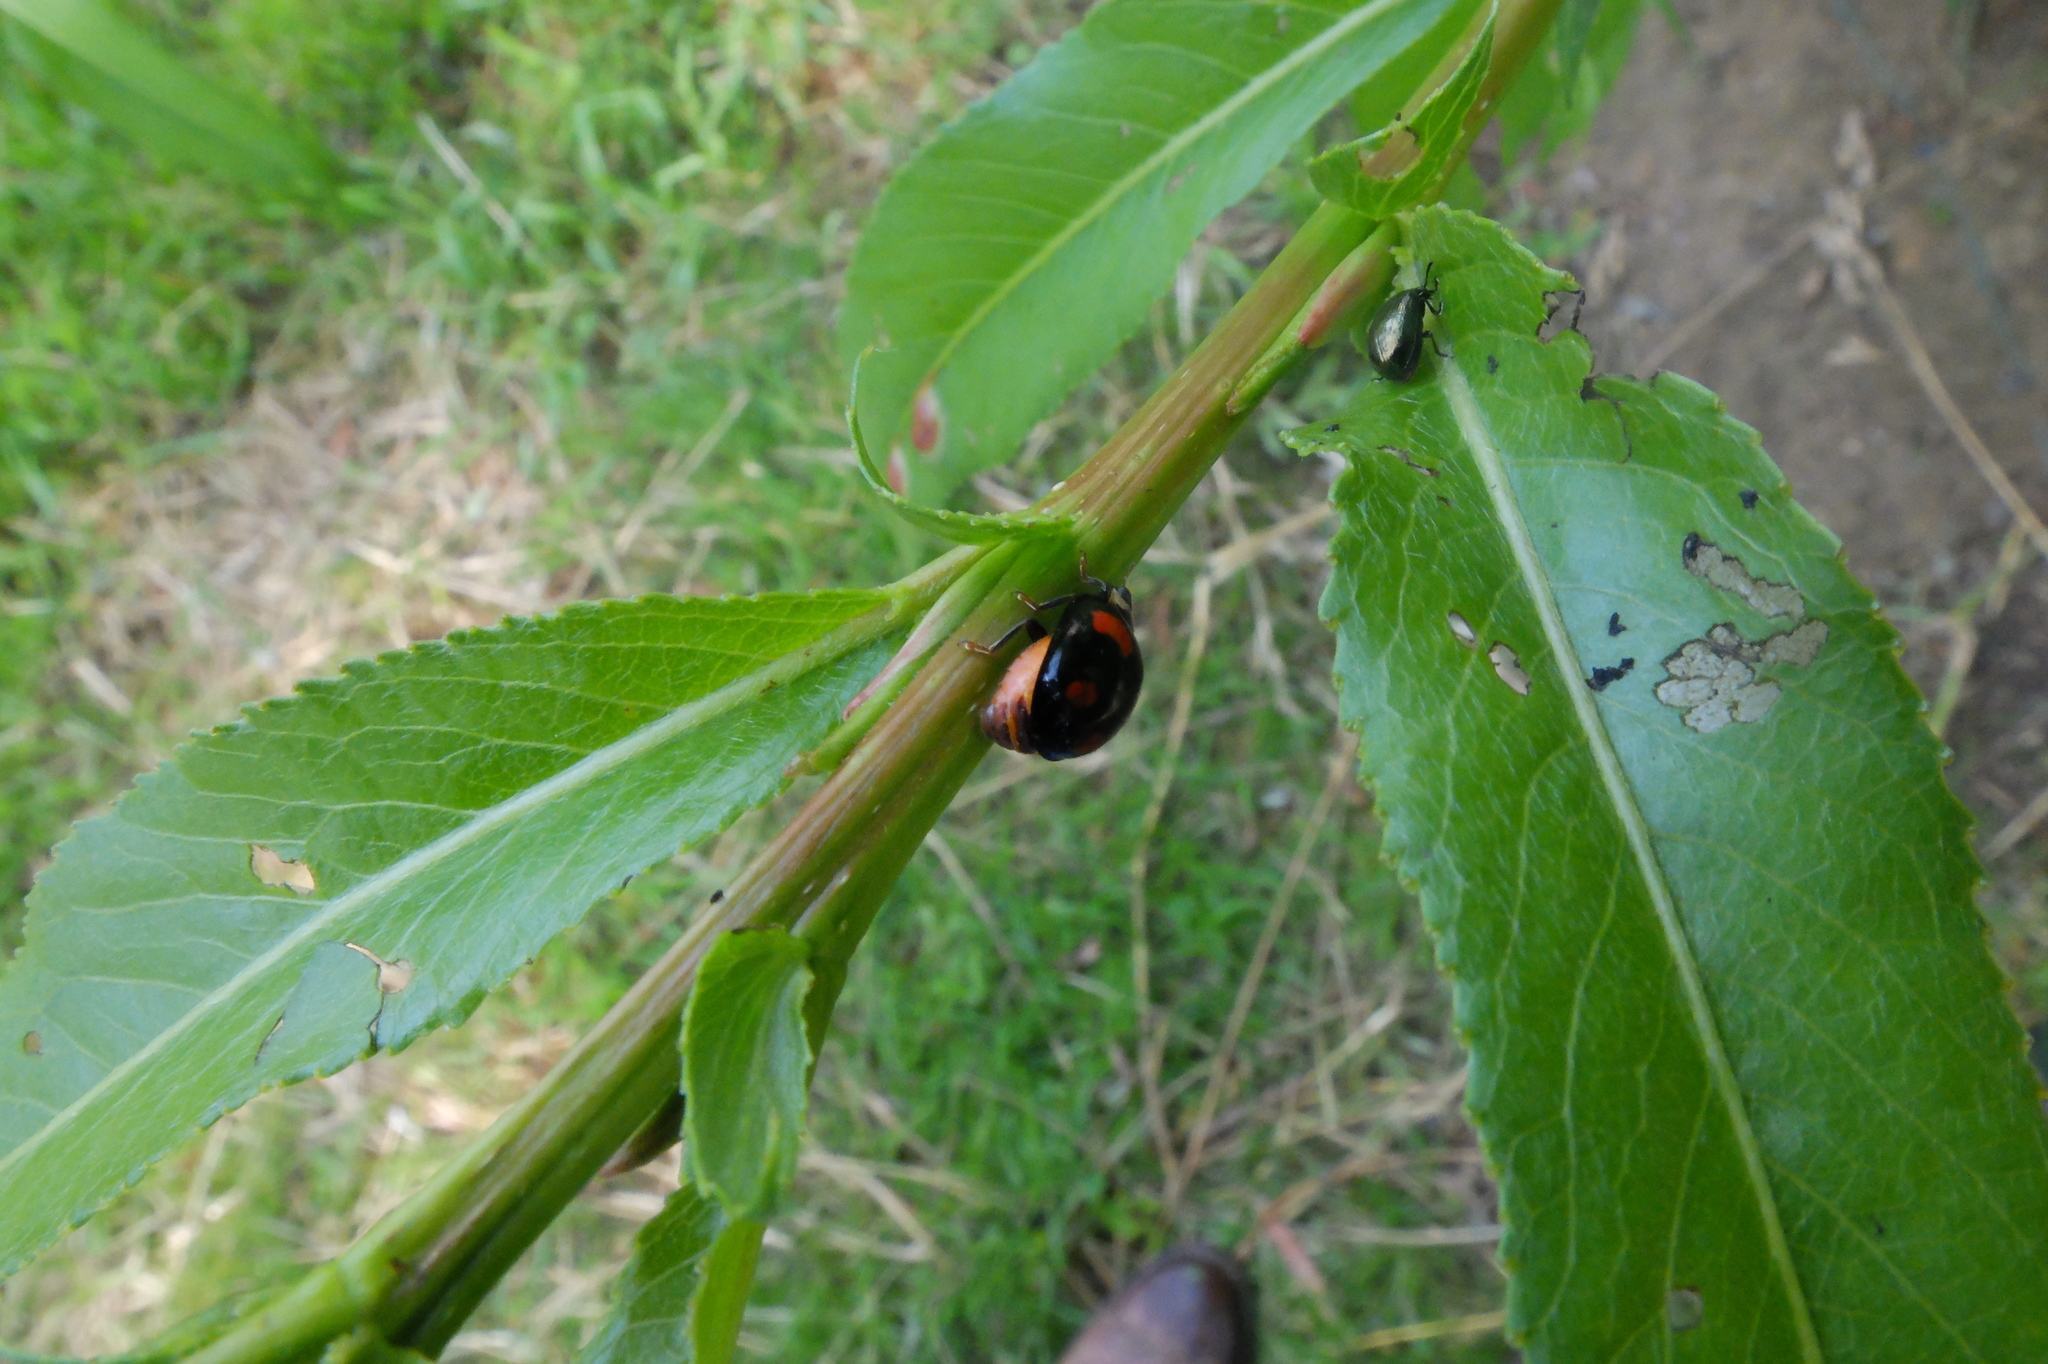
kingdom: Animalia
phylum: Arthropoda
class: Insecta
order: Coleoptera
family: Coccinellidae
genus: Harmonia
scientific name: Harmonia axyridis
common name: Harlequin ladybird
